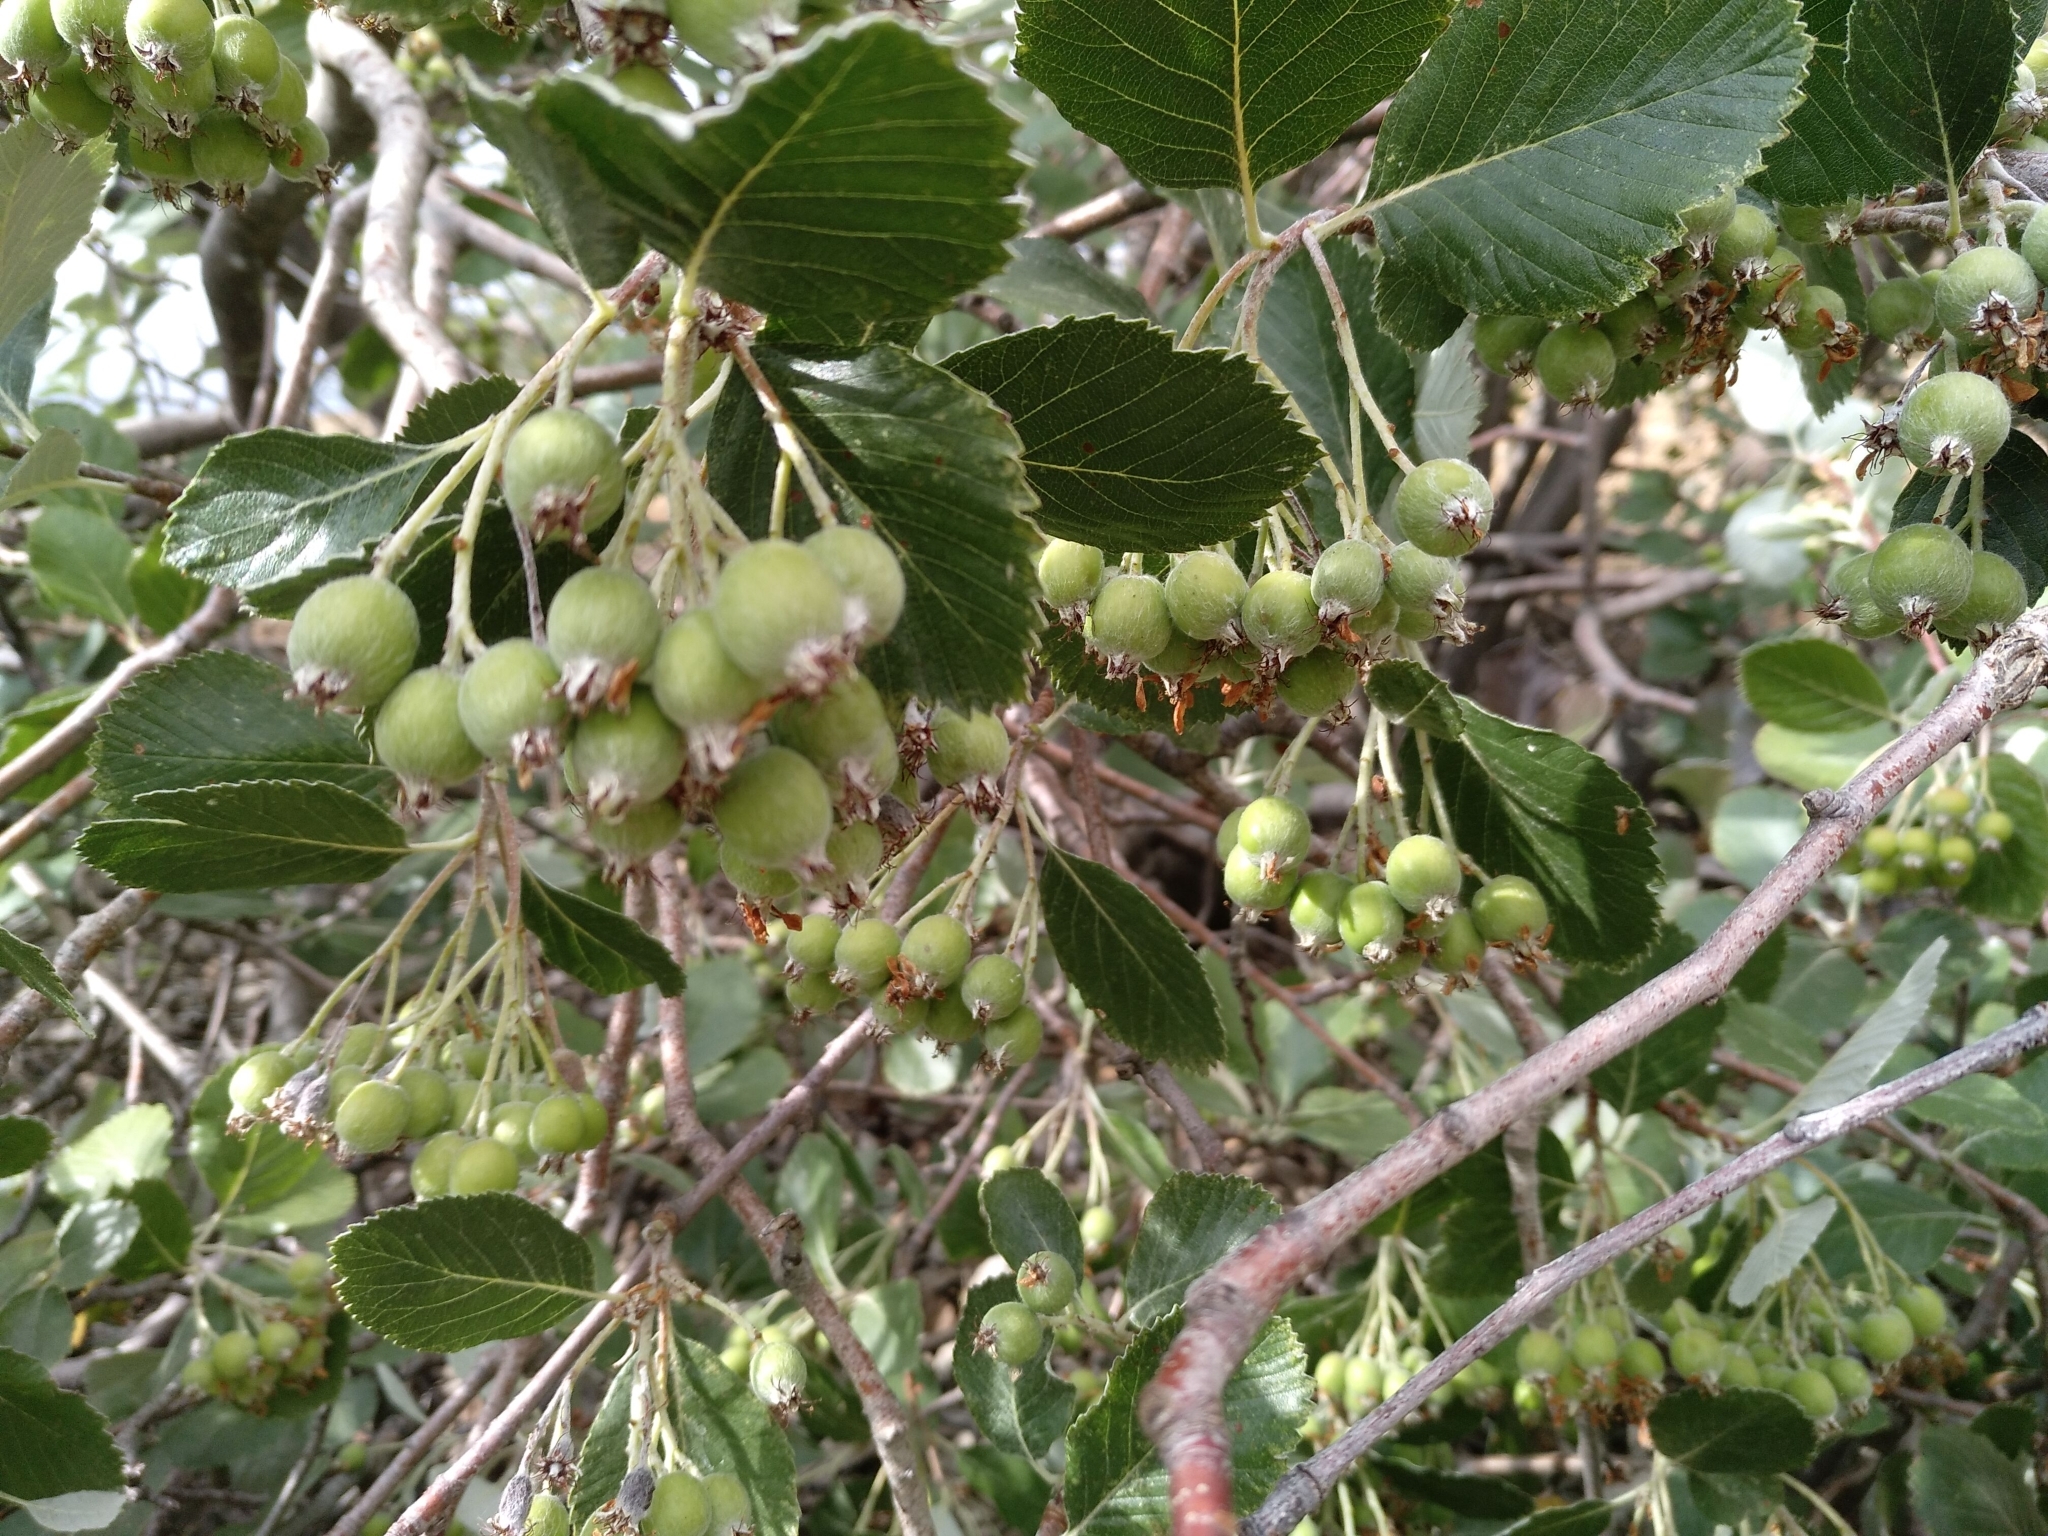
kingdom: Plantae
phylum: Tracheophyta
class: Magnoliopsida
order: Rosales
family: Rosaceae
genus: Aria
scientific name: Aria graeca
